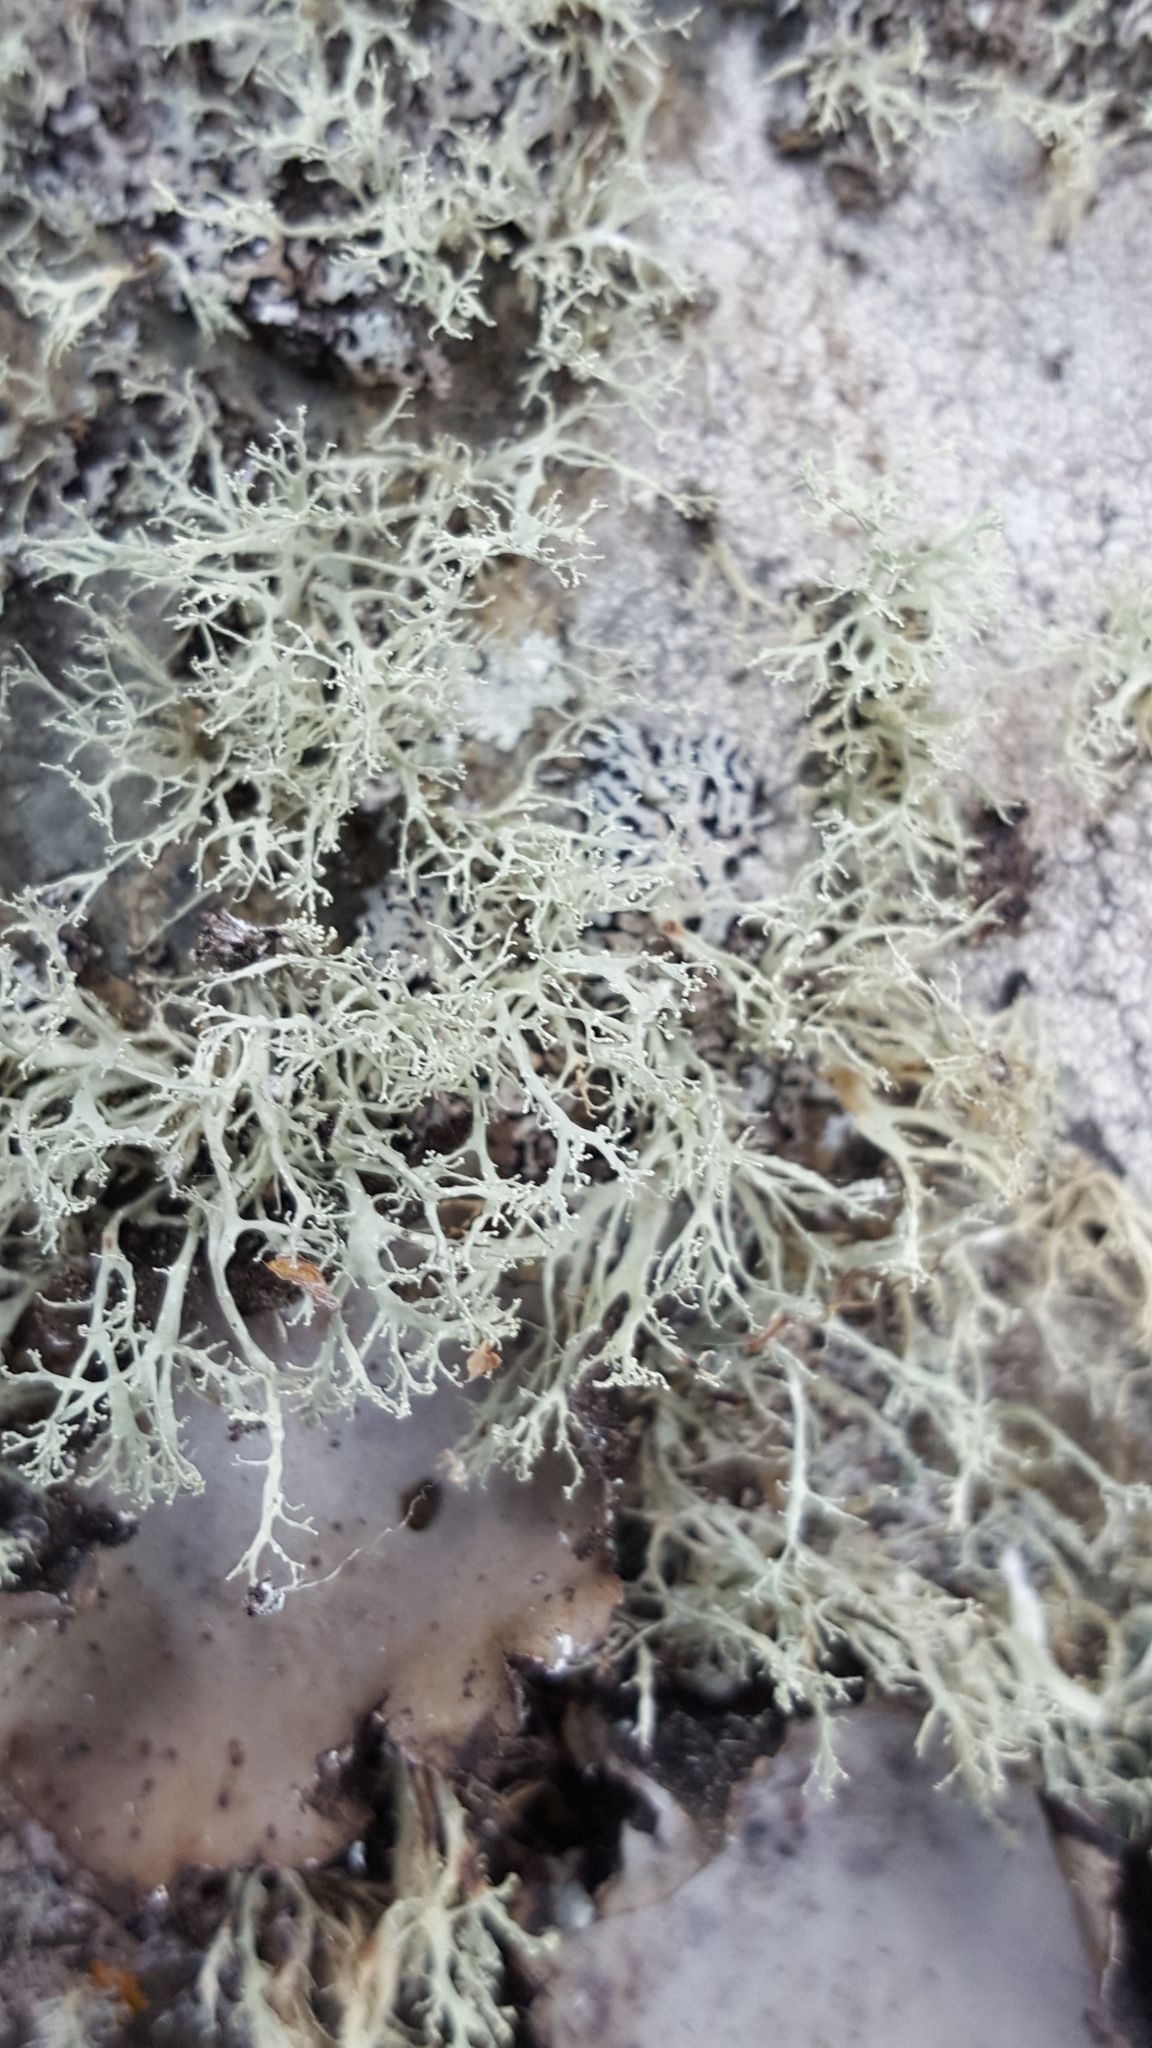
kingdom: Fungi
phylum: Ascomycota
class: Lecanoromycetes
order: Lecanorales
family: Ramalinaceae
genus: Ramalina
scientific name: Ramalina intermedia
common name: Rock bushy lichen
